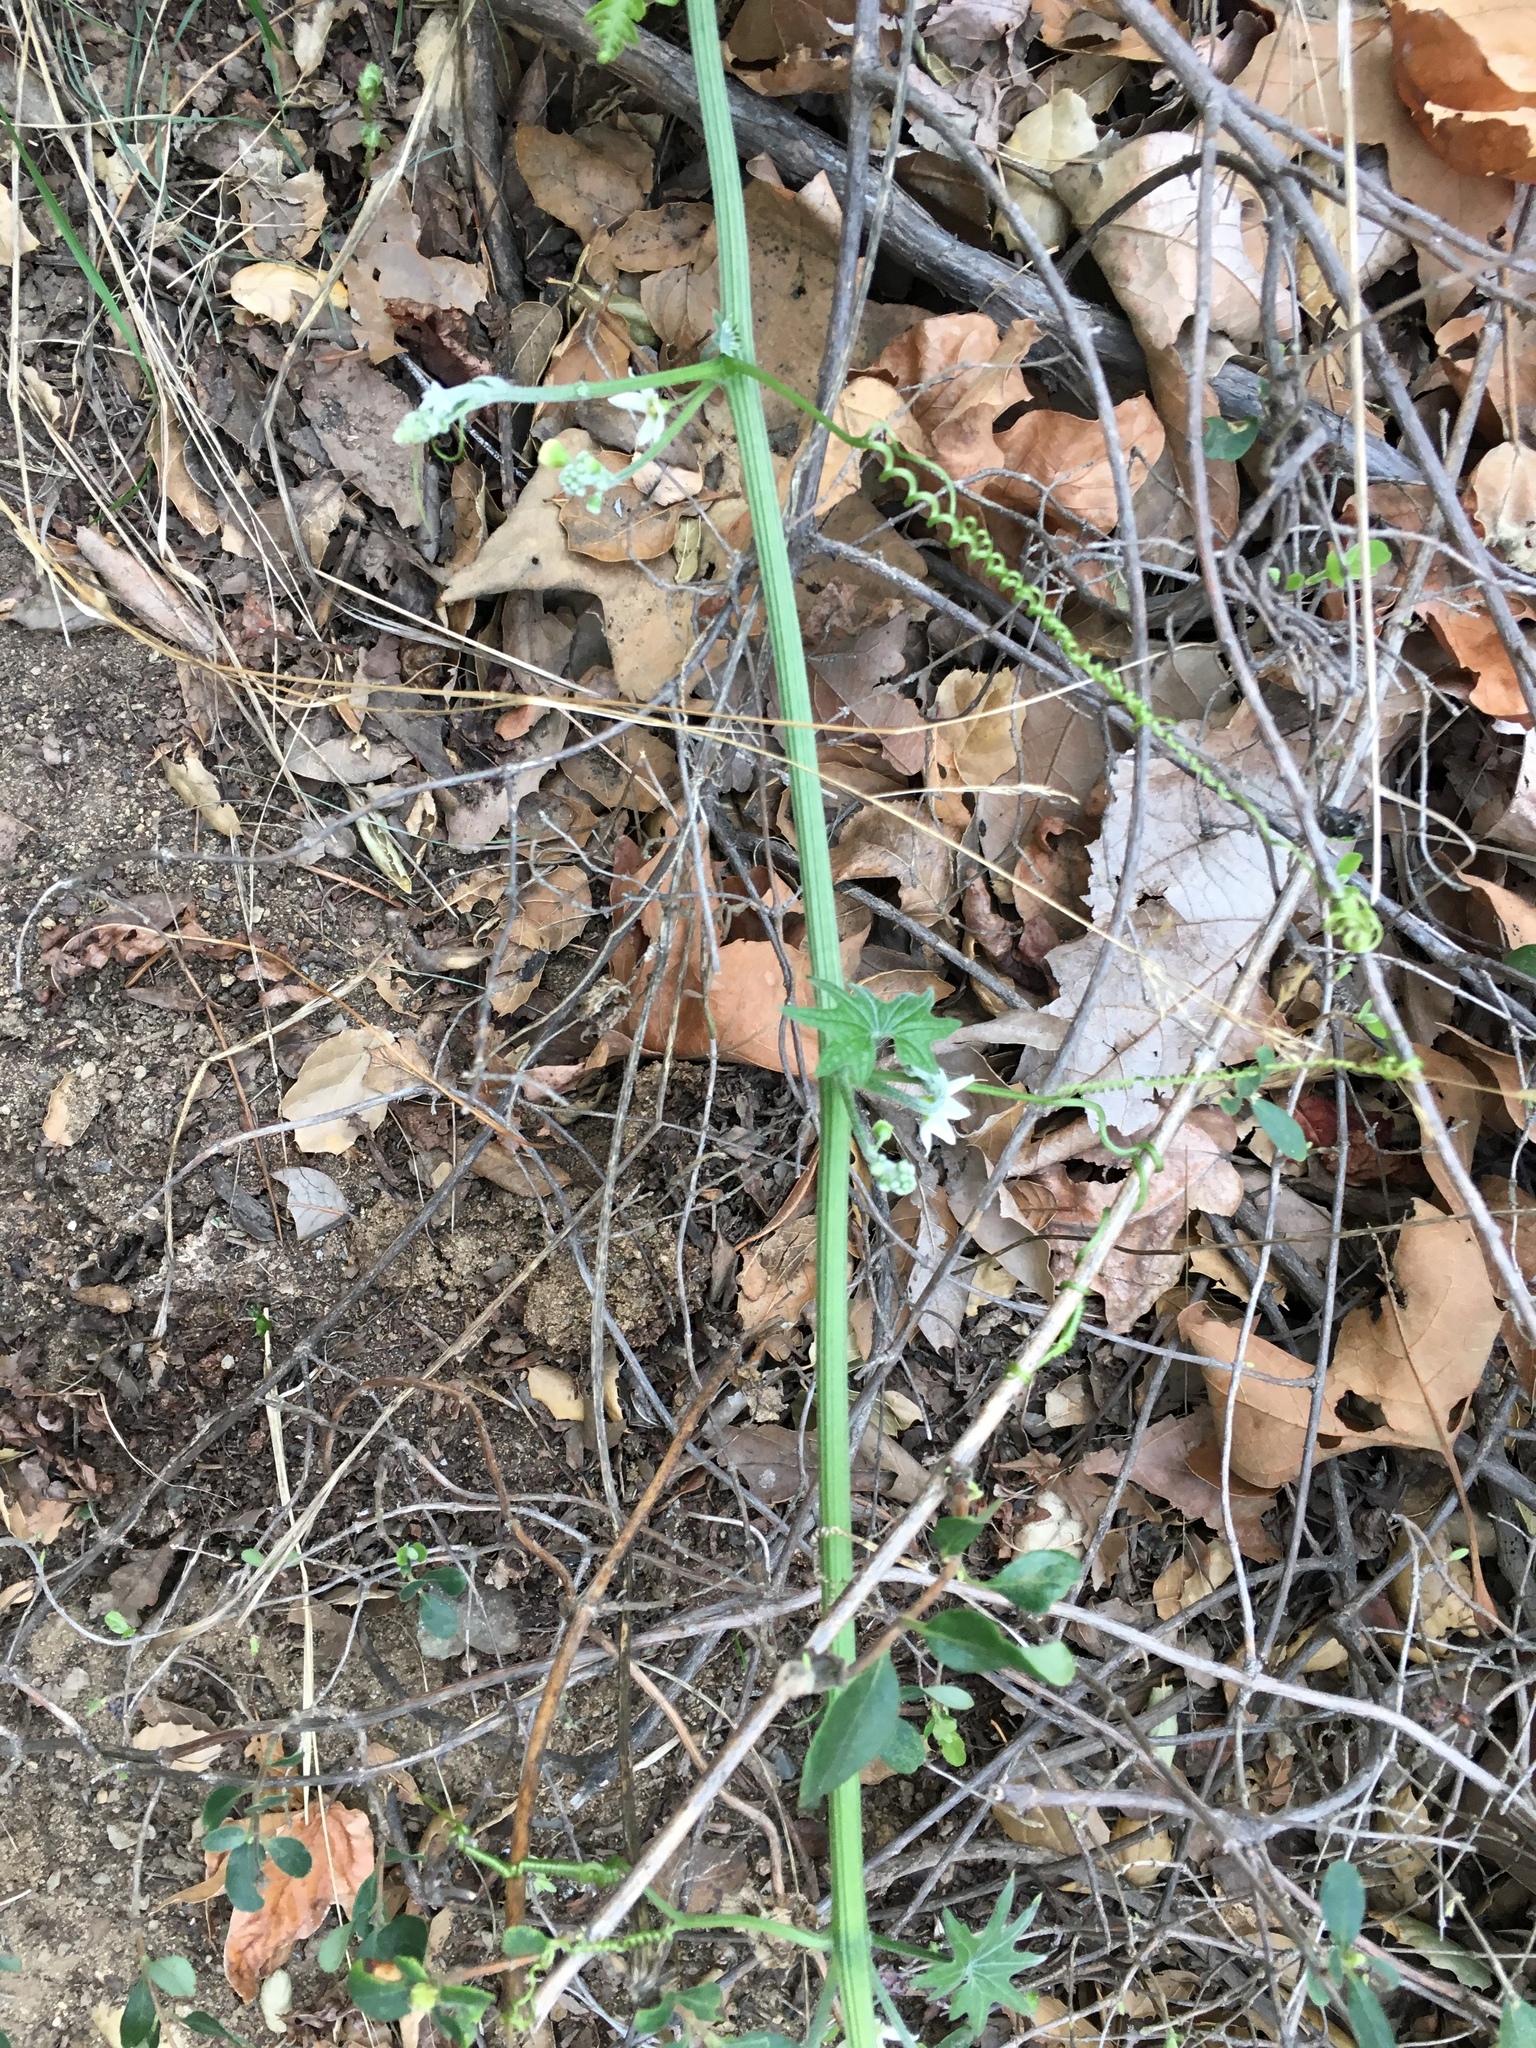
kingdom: Plantae
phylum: Tracheophyta
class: Magnoliopsida
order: Cucurbitales
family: Cucurbitaceae
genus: Marah
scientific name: Marah macrocarpa
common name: Cucamonga manroot
